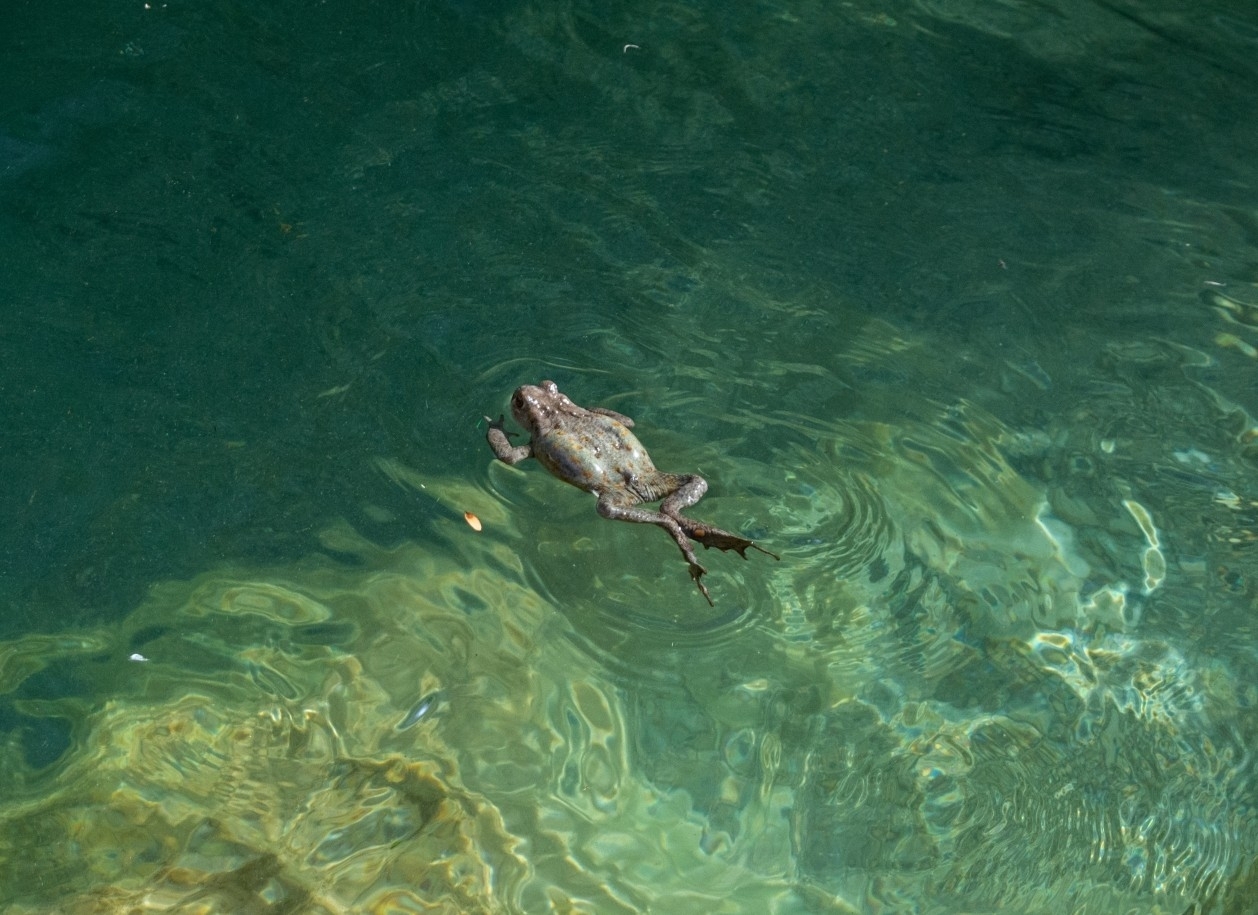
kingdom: Animalia
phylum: Chordata
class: Amphibia
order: Anura
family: Bufonidae
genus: Bufo
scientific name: Bufo bufo
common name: Common toad
